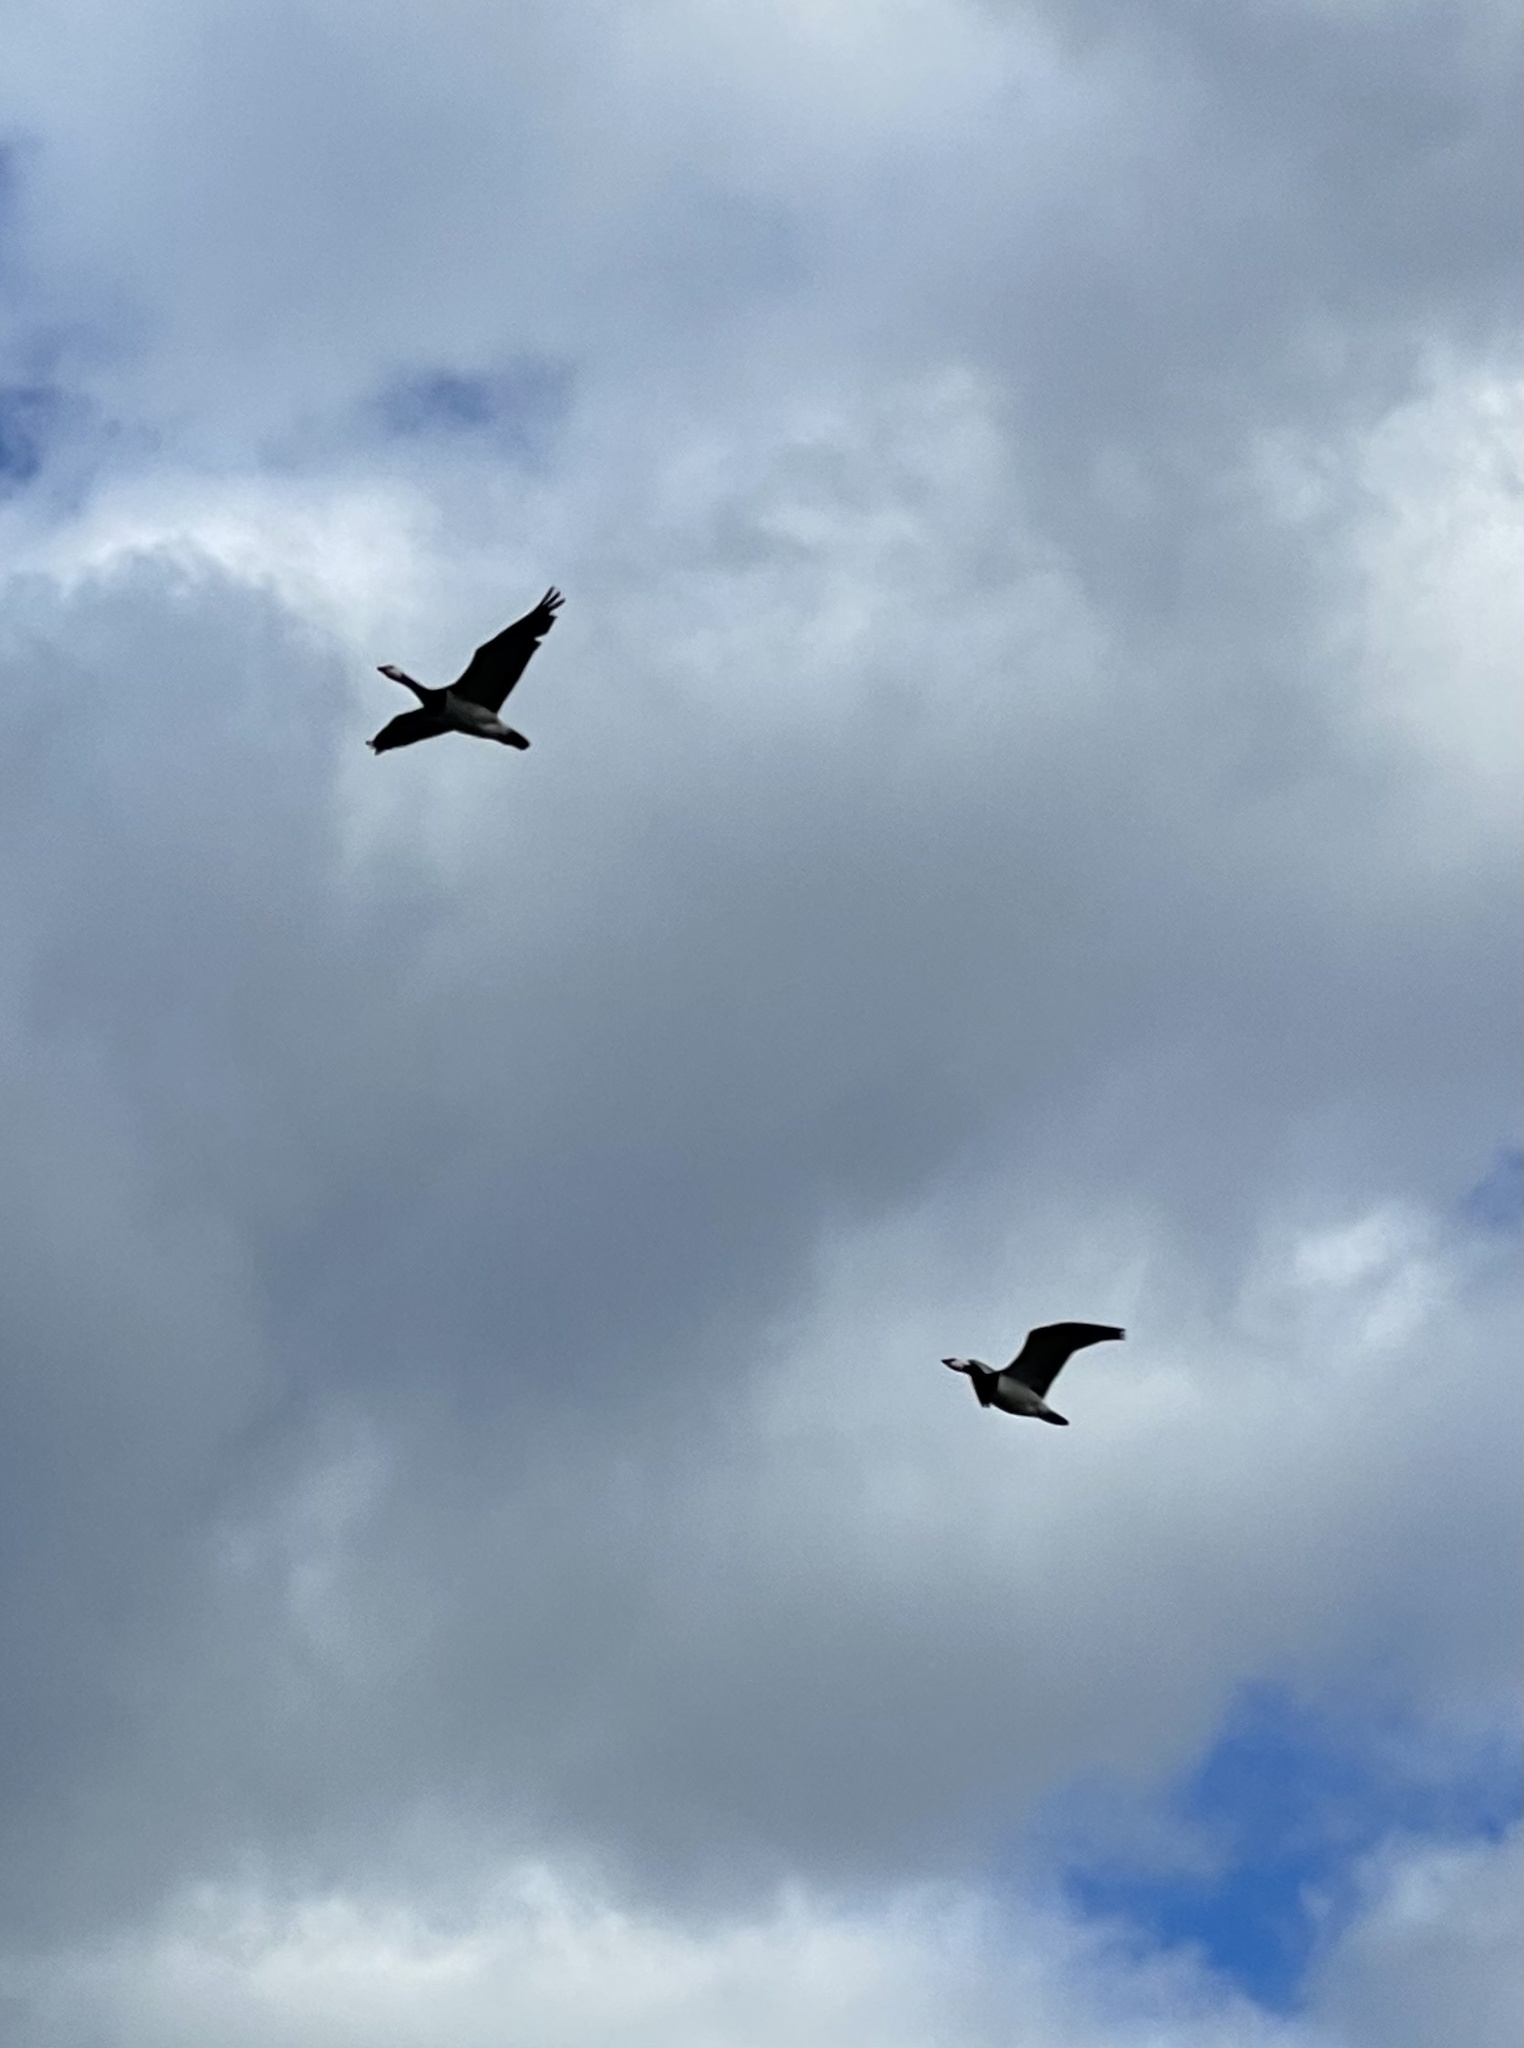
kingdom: Animalia
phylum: Chordata
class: Aves
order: Anseriformes
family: Anatidae
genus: Branta
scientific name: Branta leucopsis
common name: Barnacle goose
